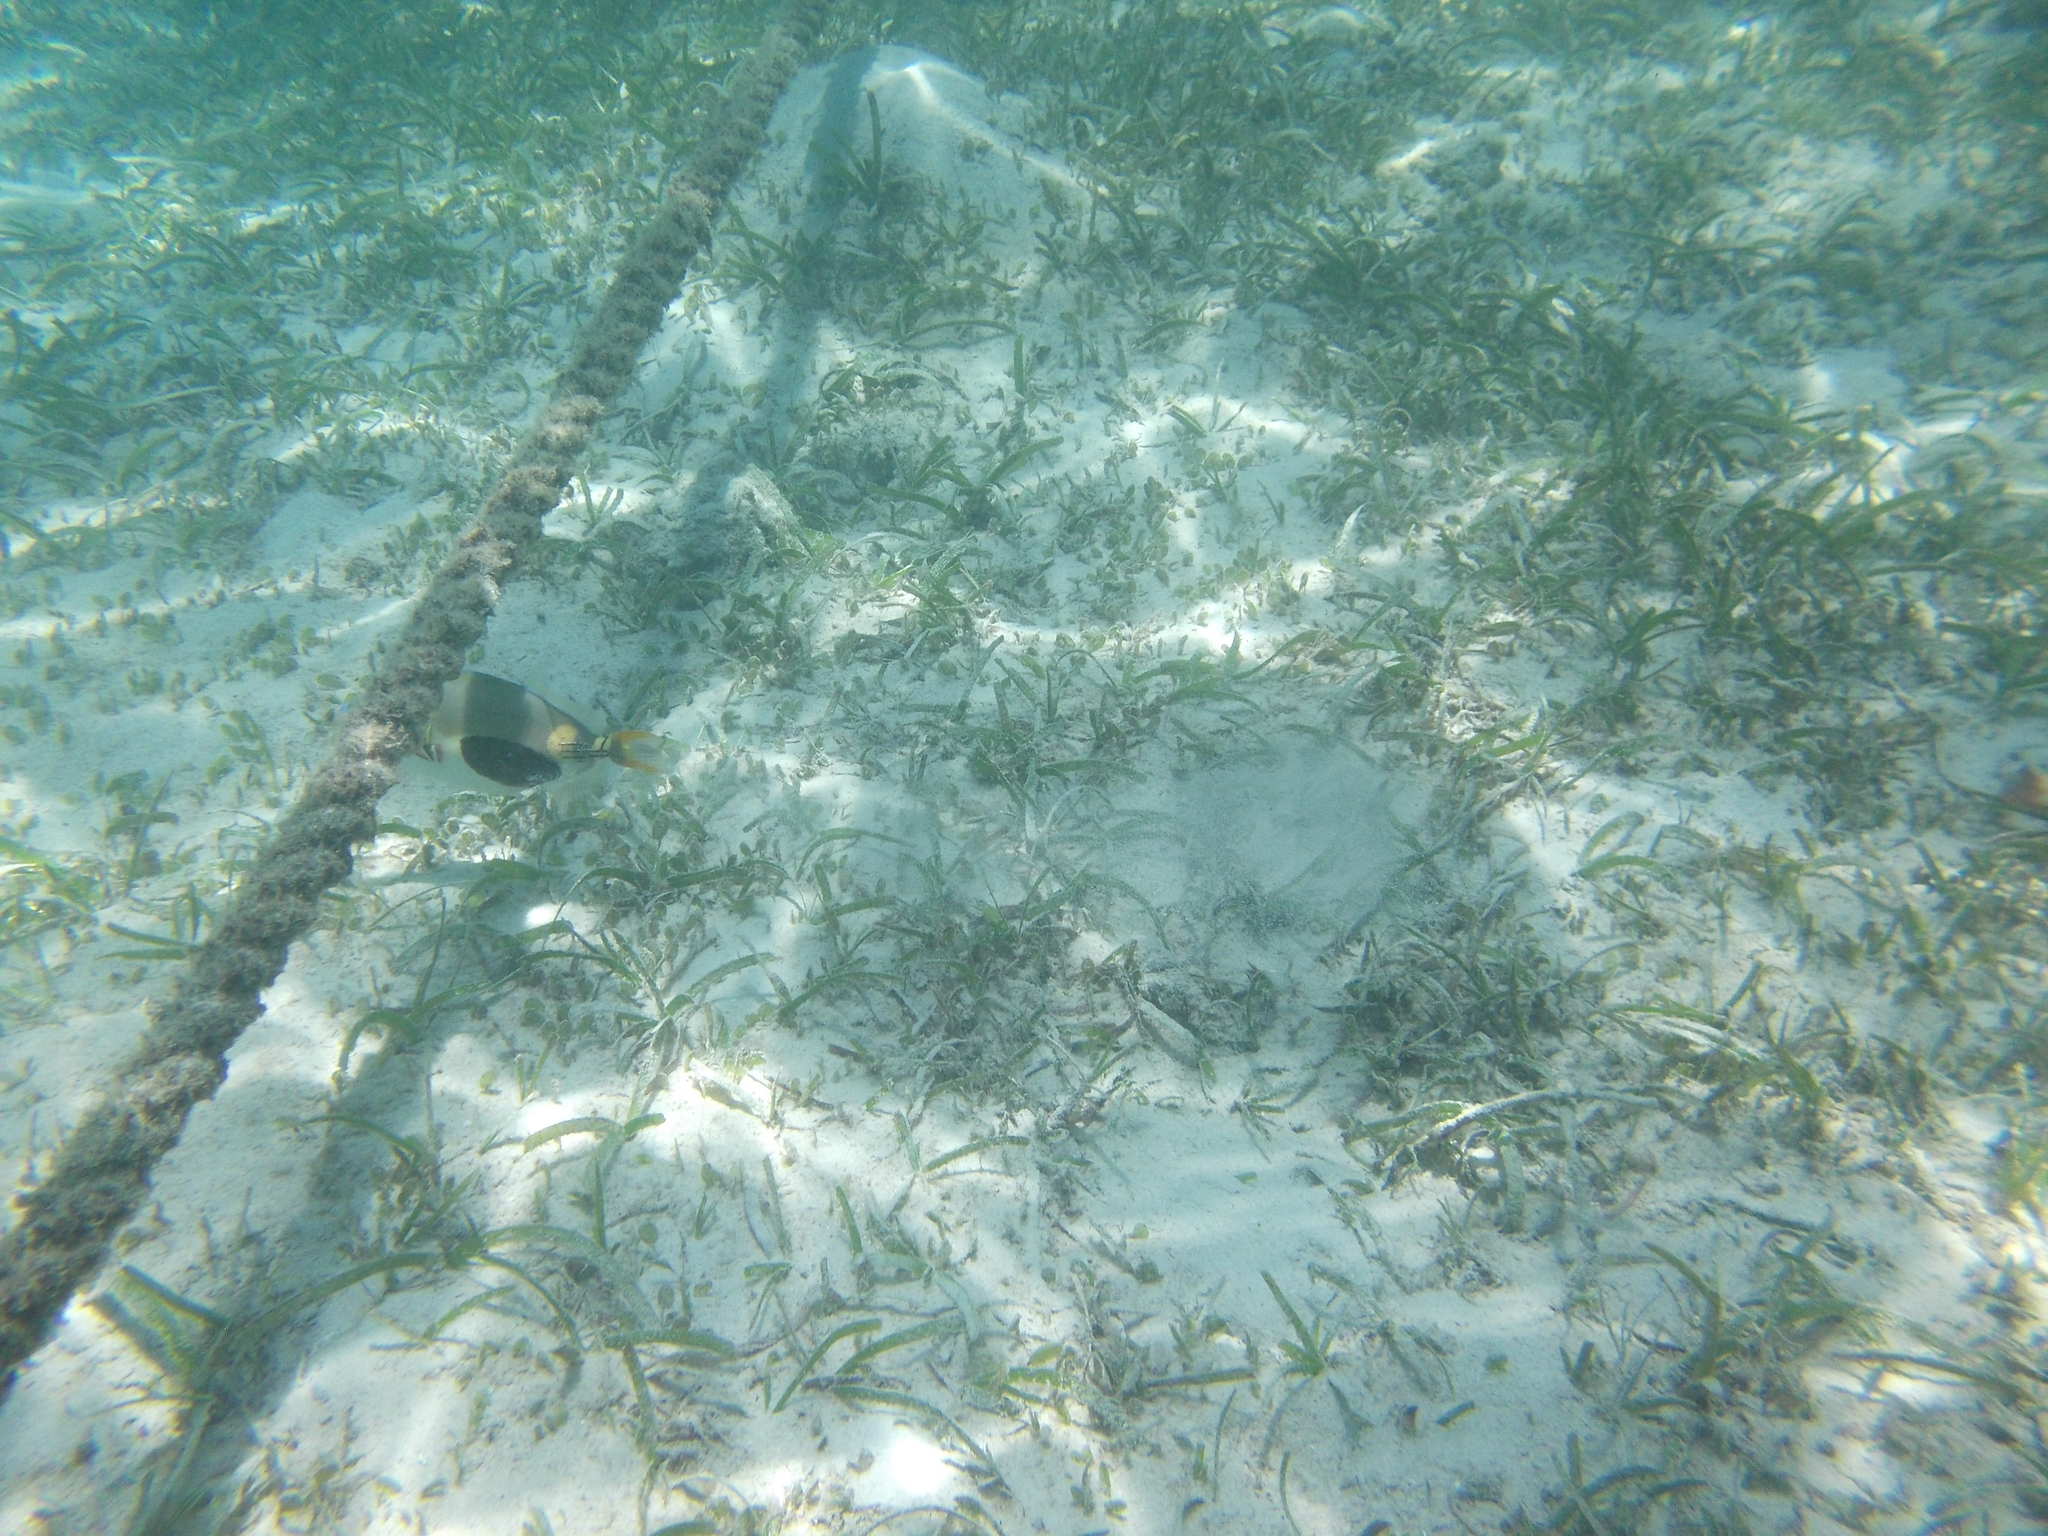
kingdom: Animalia
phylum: Chordata
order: Tetraodontiformes
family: Balistidae
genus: Rhinecanthus
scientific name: Rhinecanthus verrucosus
